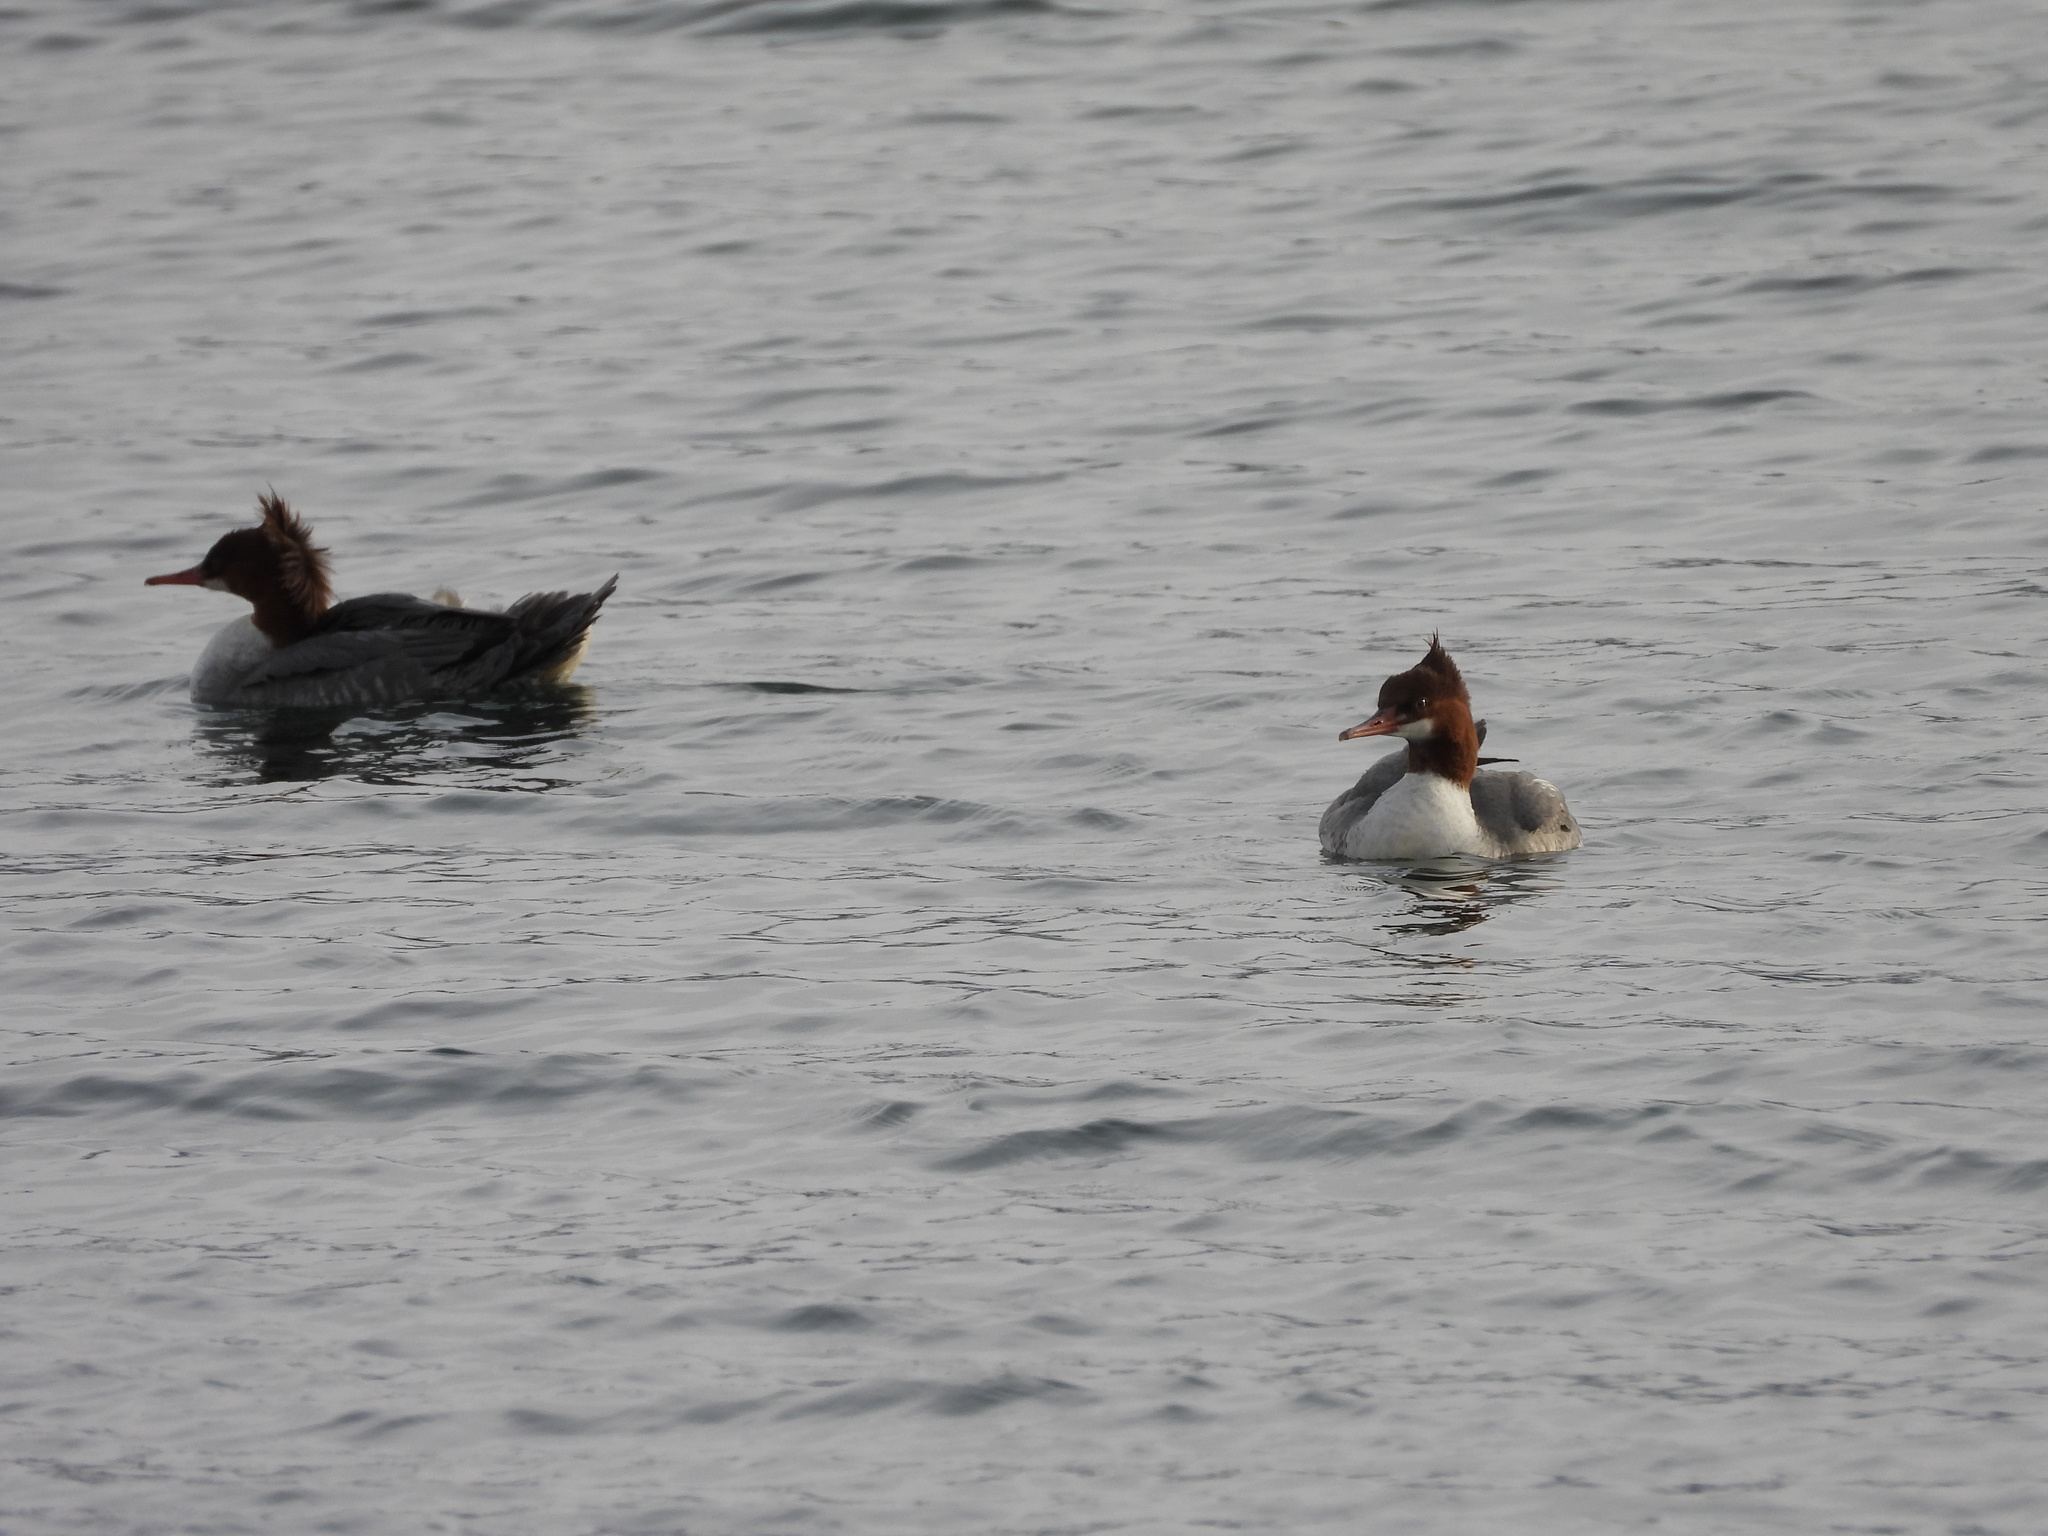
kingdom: Animalia
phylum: Chordata
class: Aves
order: Anseriformes
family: Anatidae
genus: Mergus
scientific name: Mergus merganser
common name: Common merganser
